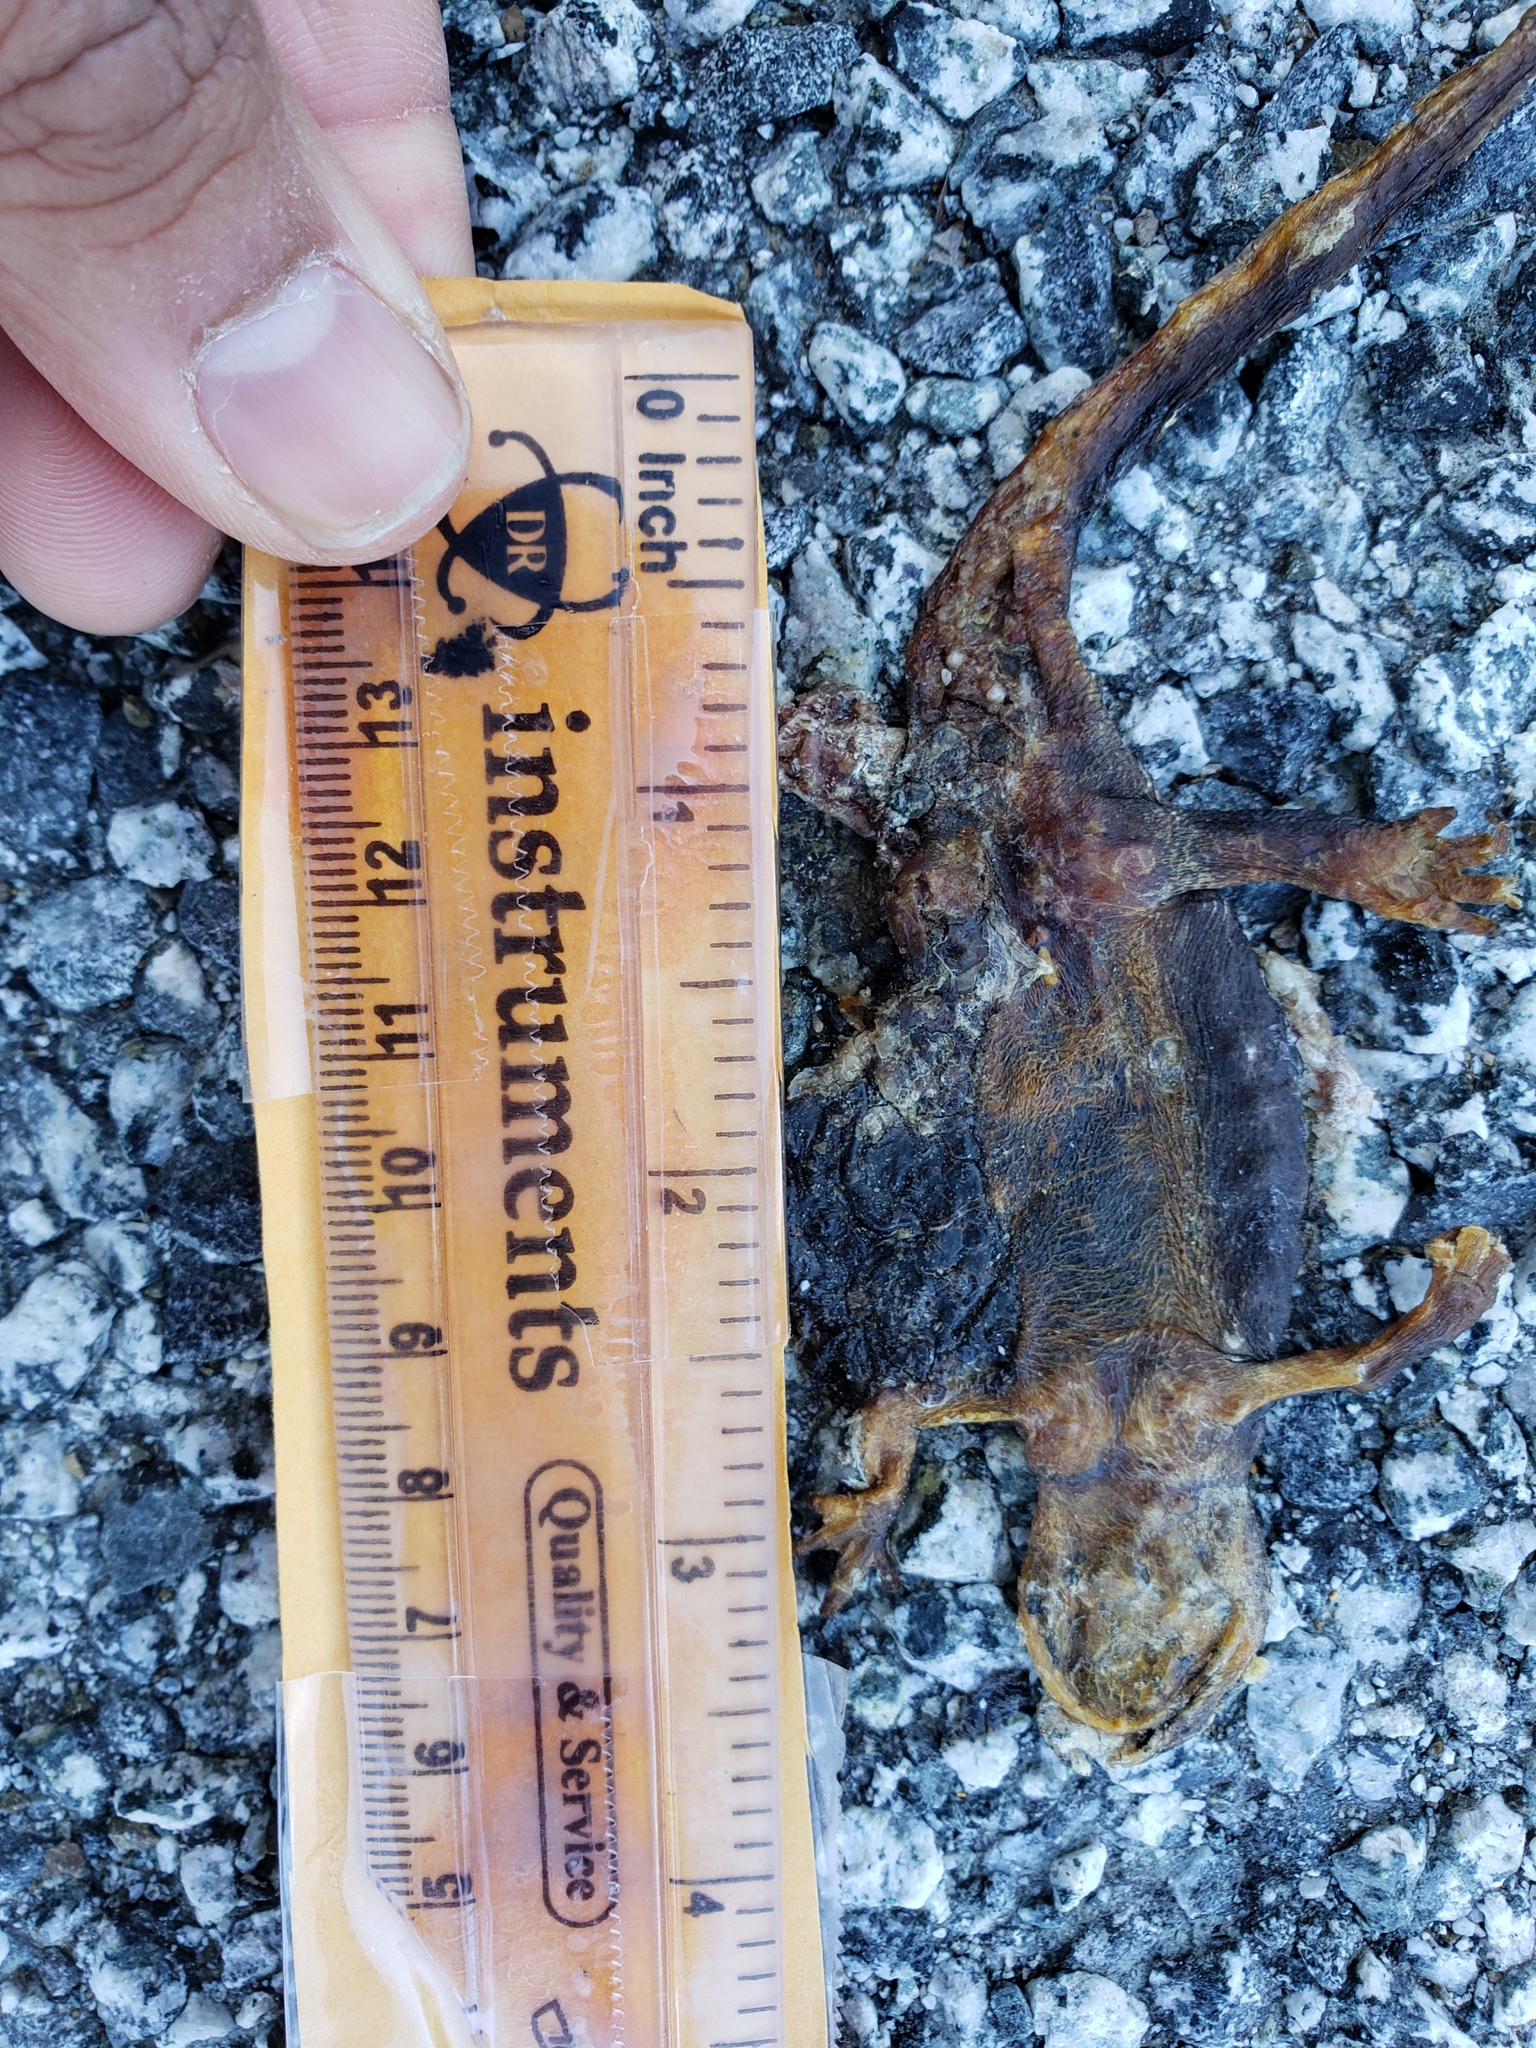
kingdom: Animalia
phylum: Chordata
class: Amphibia
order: Caudata
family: Salamandridae
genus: Taricha
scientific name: Taricha
